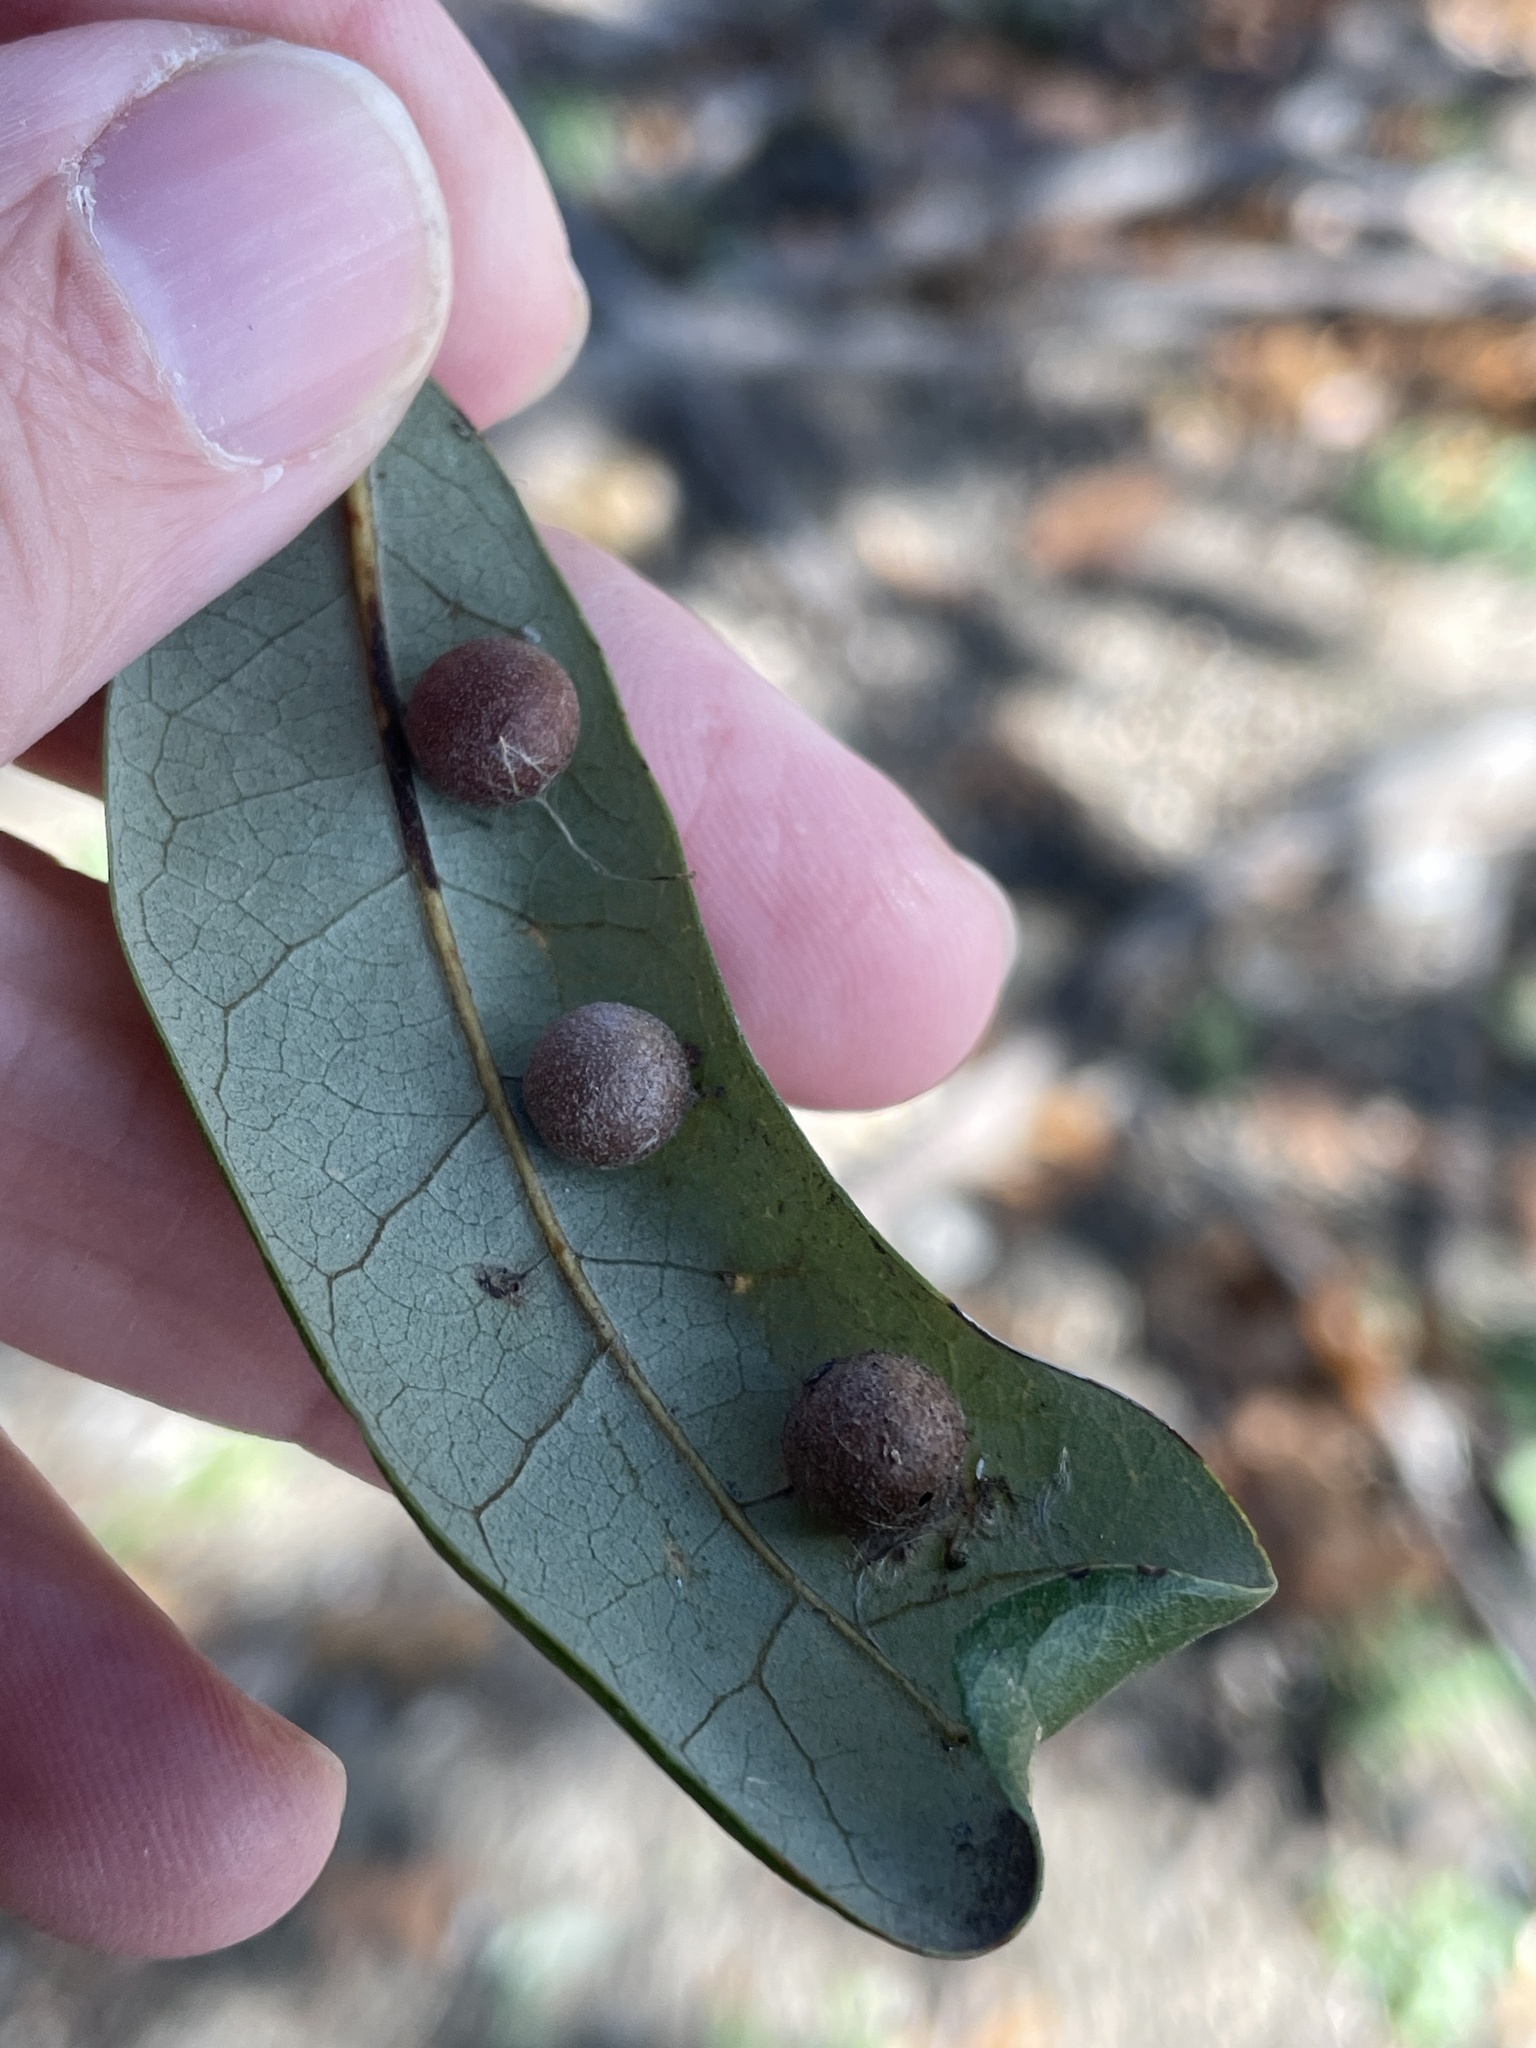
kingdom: Animalia
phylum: Arthropoda
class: Insecta
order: Hymenoptera
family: Cynipidae
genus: Belonocnema
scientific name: Belonocnema kinseyi
